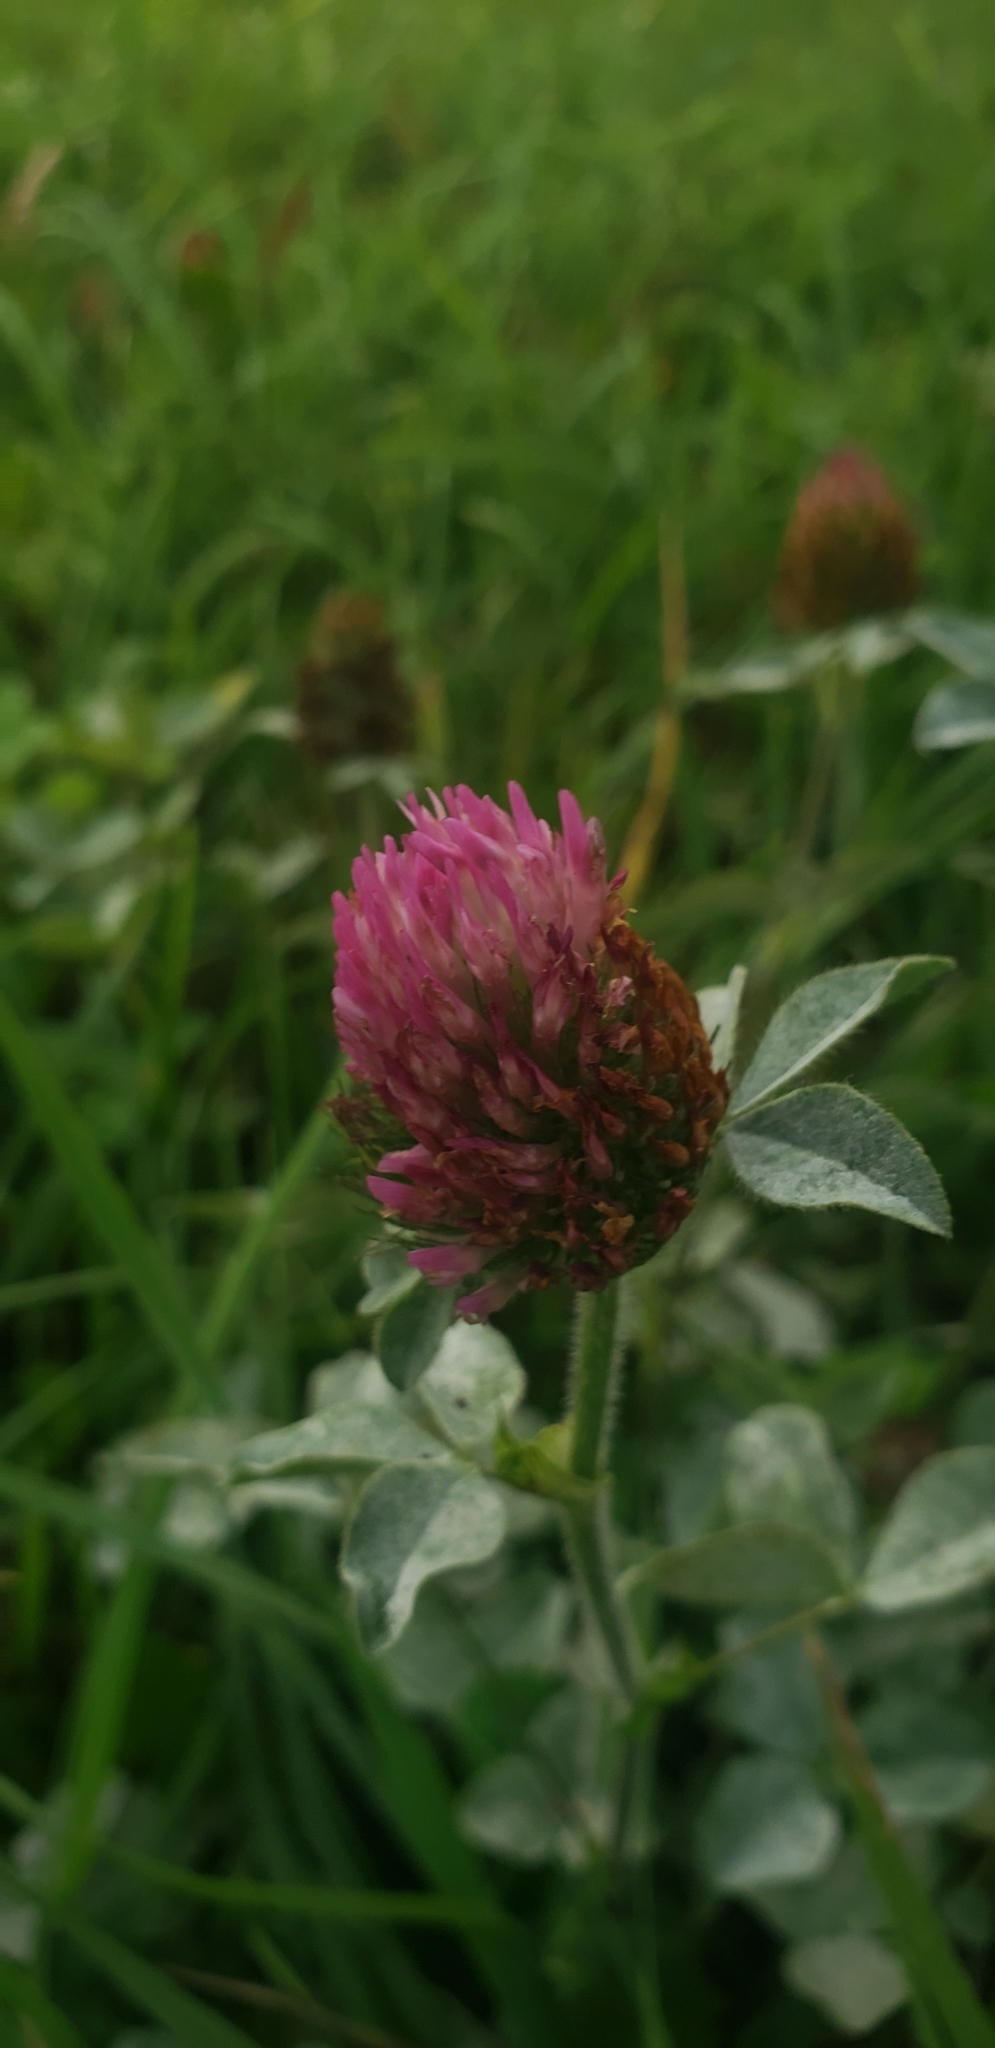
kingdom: Plantae
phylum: Tracheophyta
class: Magnoliopsida
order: Fabales
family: Fabaceae
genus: Trifolium
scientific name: Trifolium pratense
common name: Red clover
